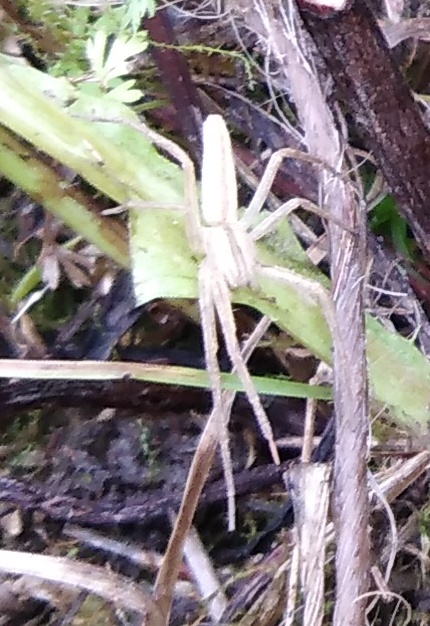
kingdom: Animalia
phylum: Arthropoda
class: Arachnida
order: Araneae
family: Philodromidae
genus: Tibellus
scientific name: Tibellus
